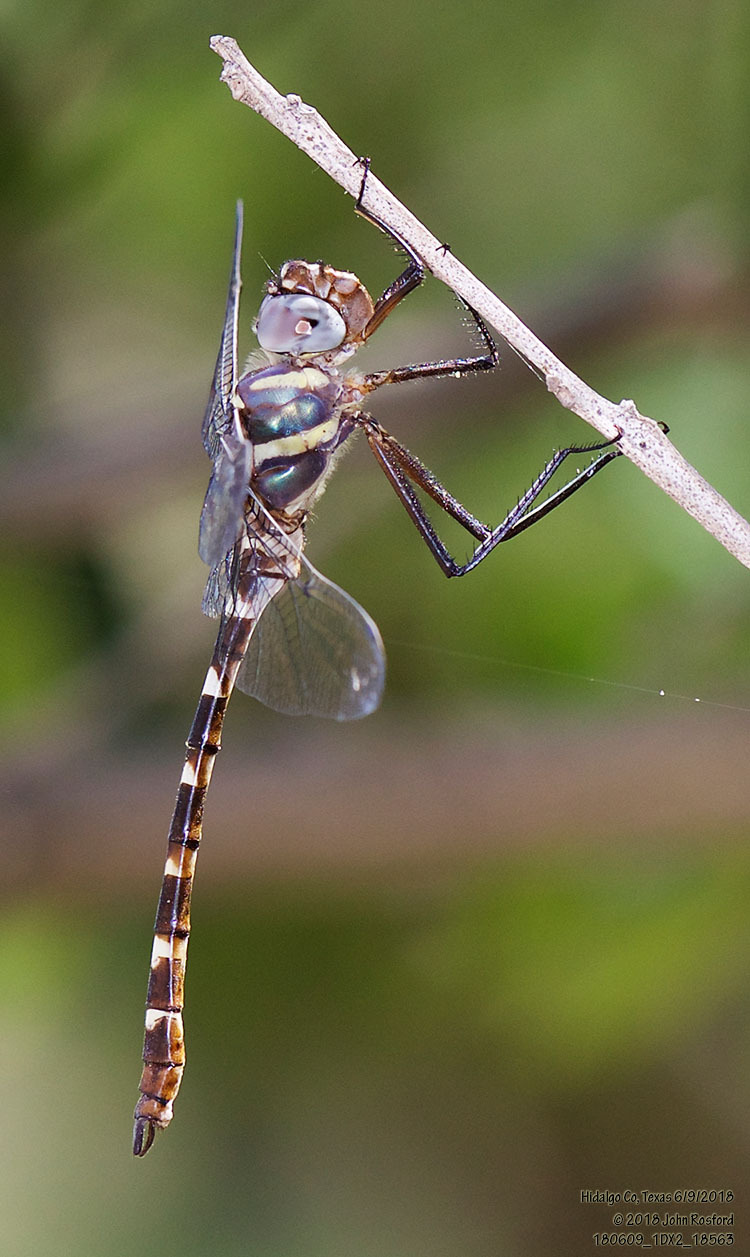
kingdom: Animalia
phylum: Arthropoda
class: Insecta
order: Odonata
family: Macromiidae
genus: Macromia
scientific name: Macromia annulata
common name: Bronzed river cruiser
